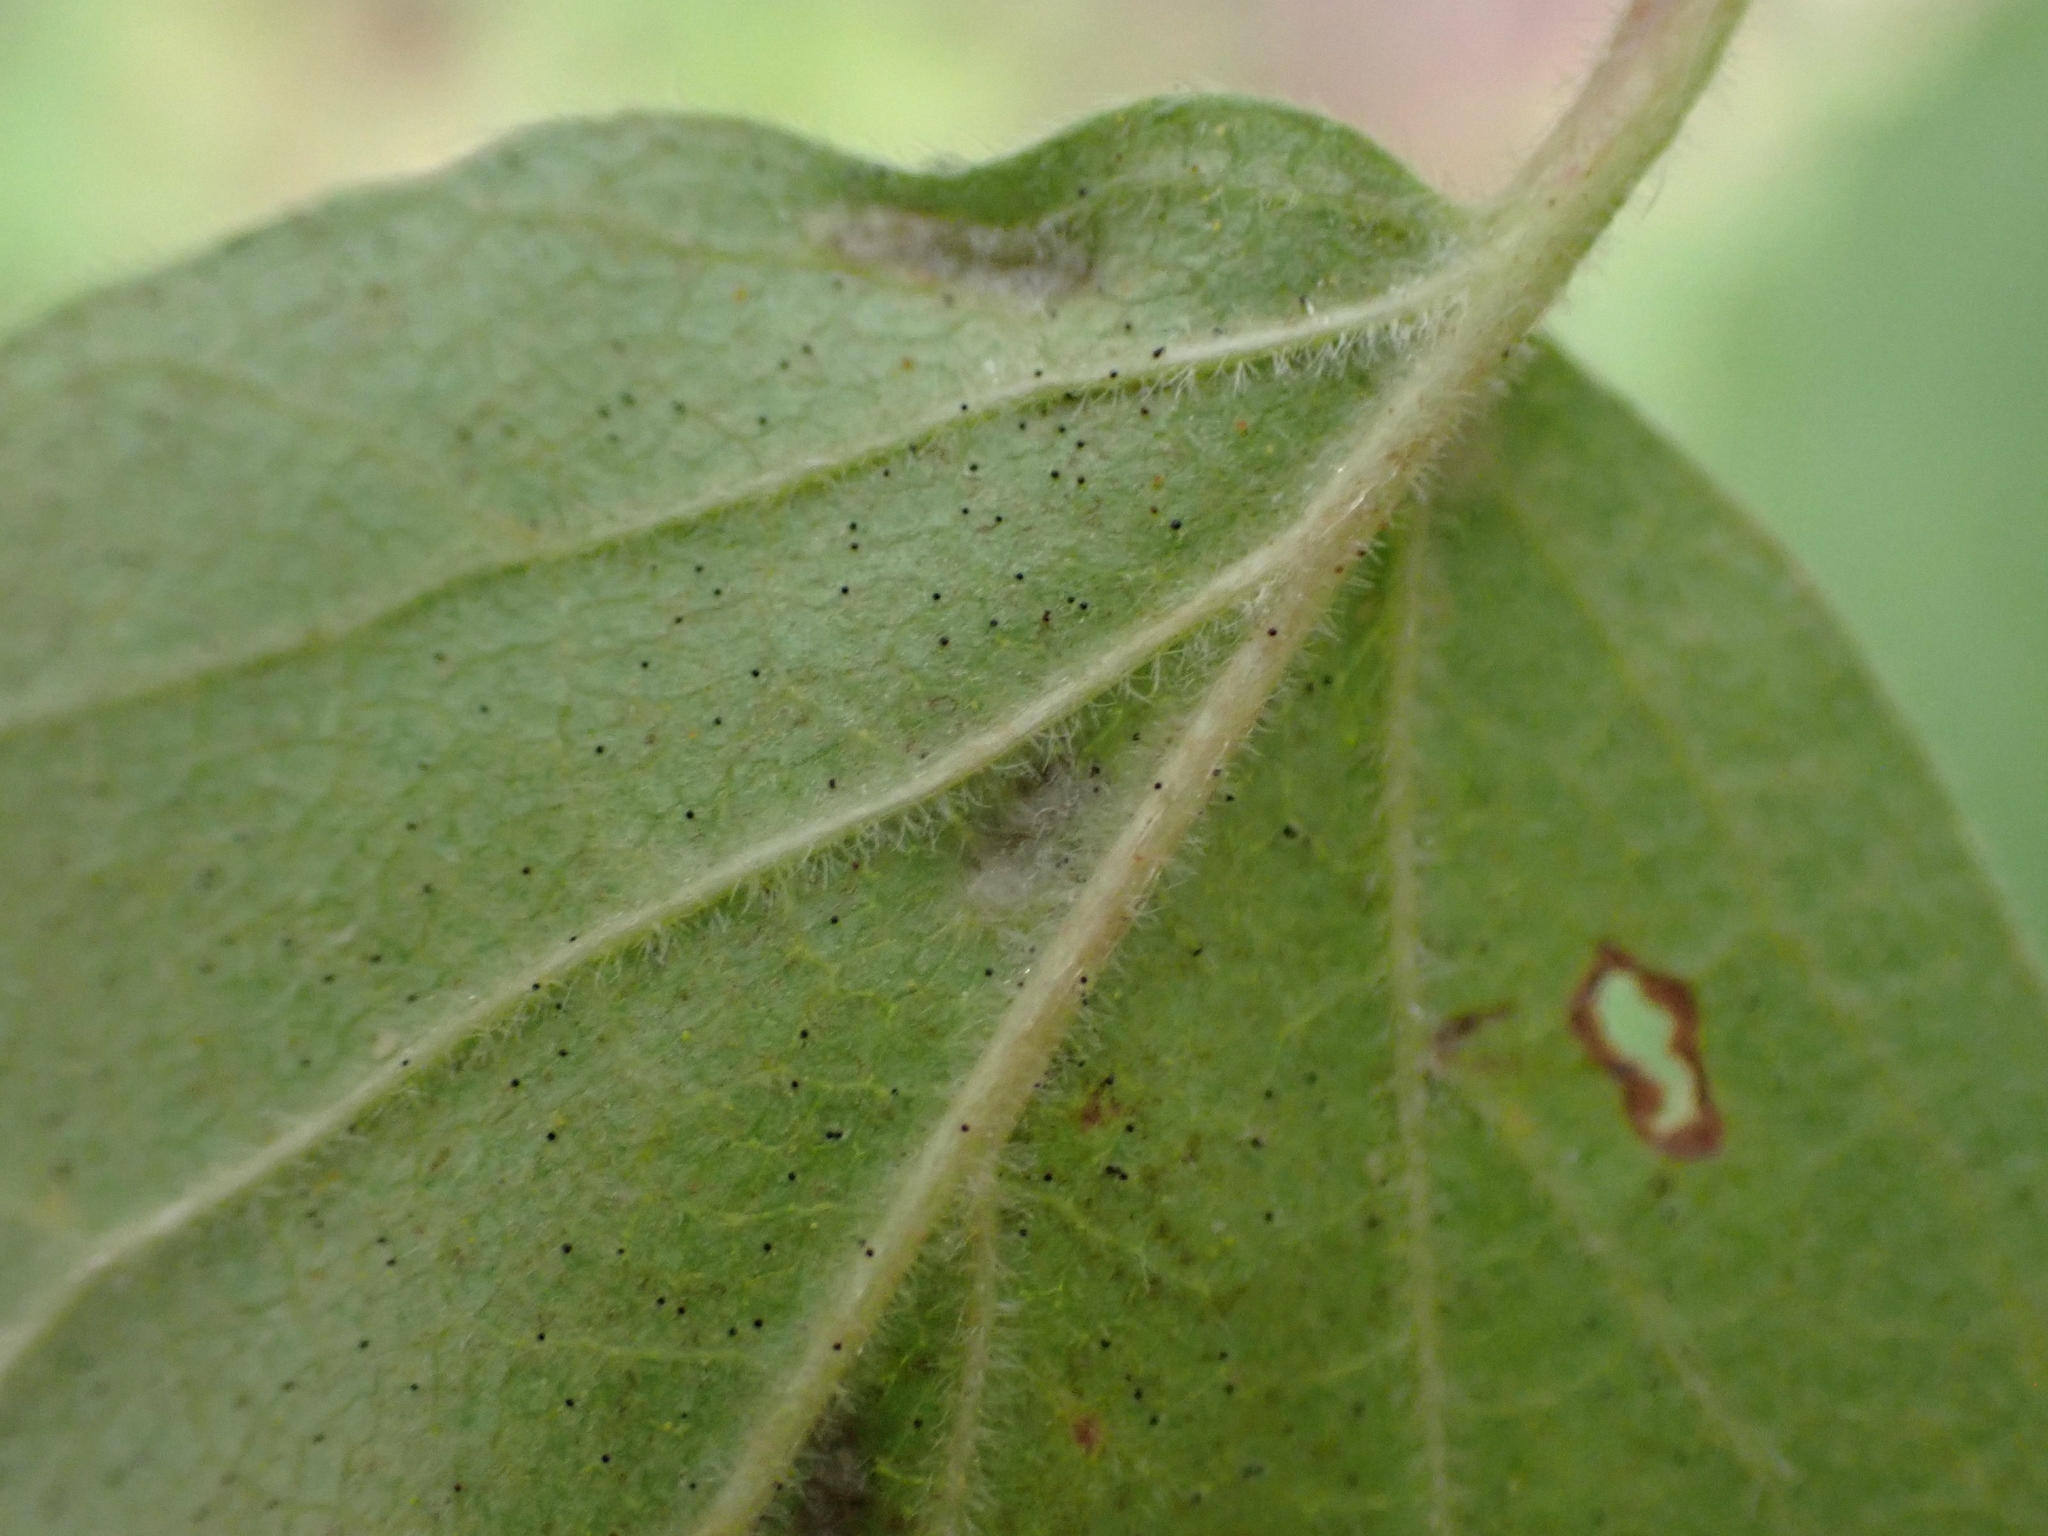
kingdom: Animalia
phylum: Arthropoda
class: Arachnida
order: Trombidiformes
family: Eriophyidae
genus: Eriophyes
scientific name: Eriophyes
